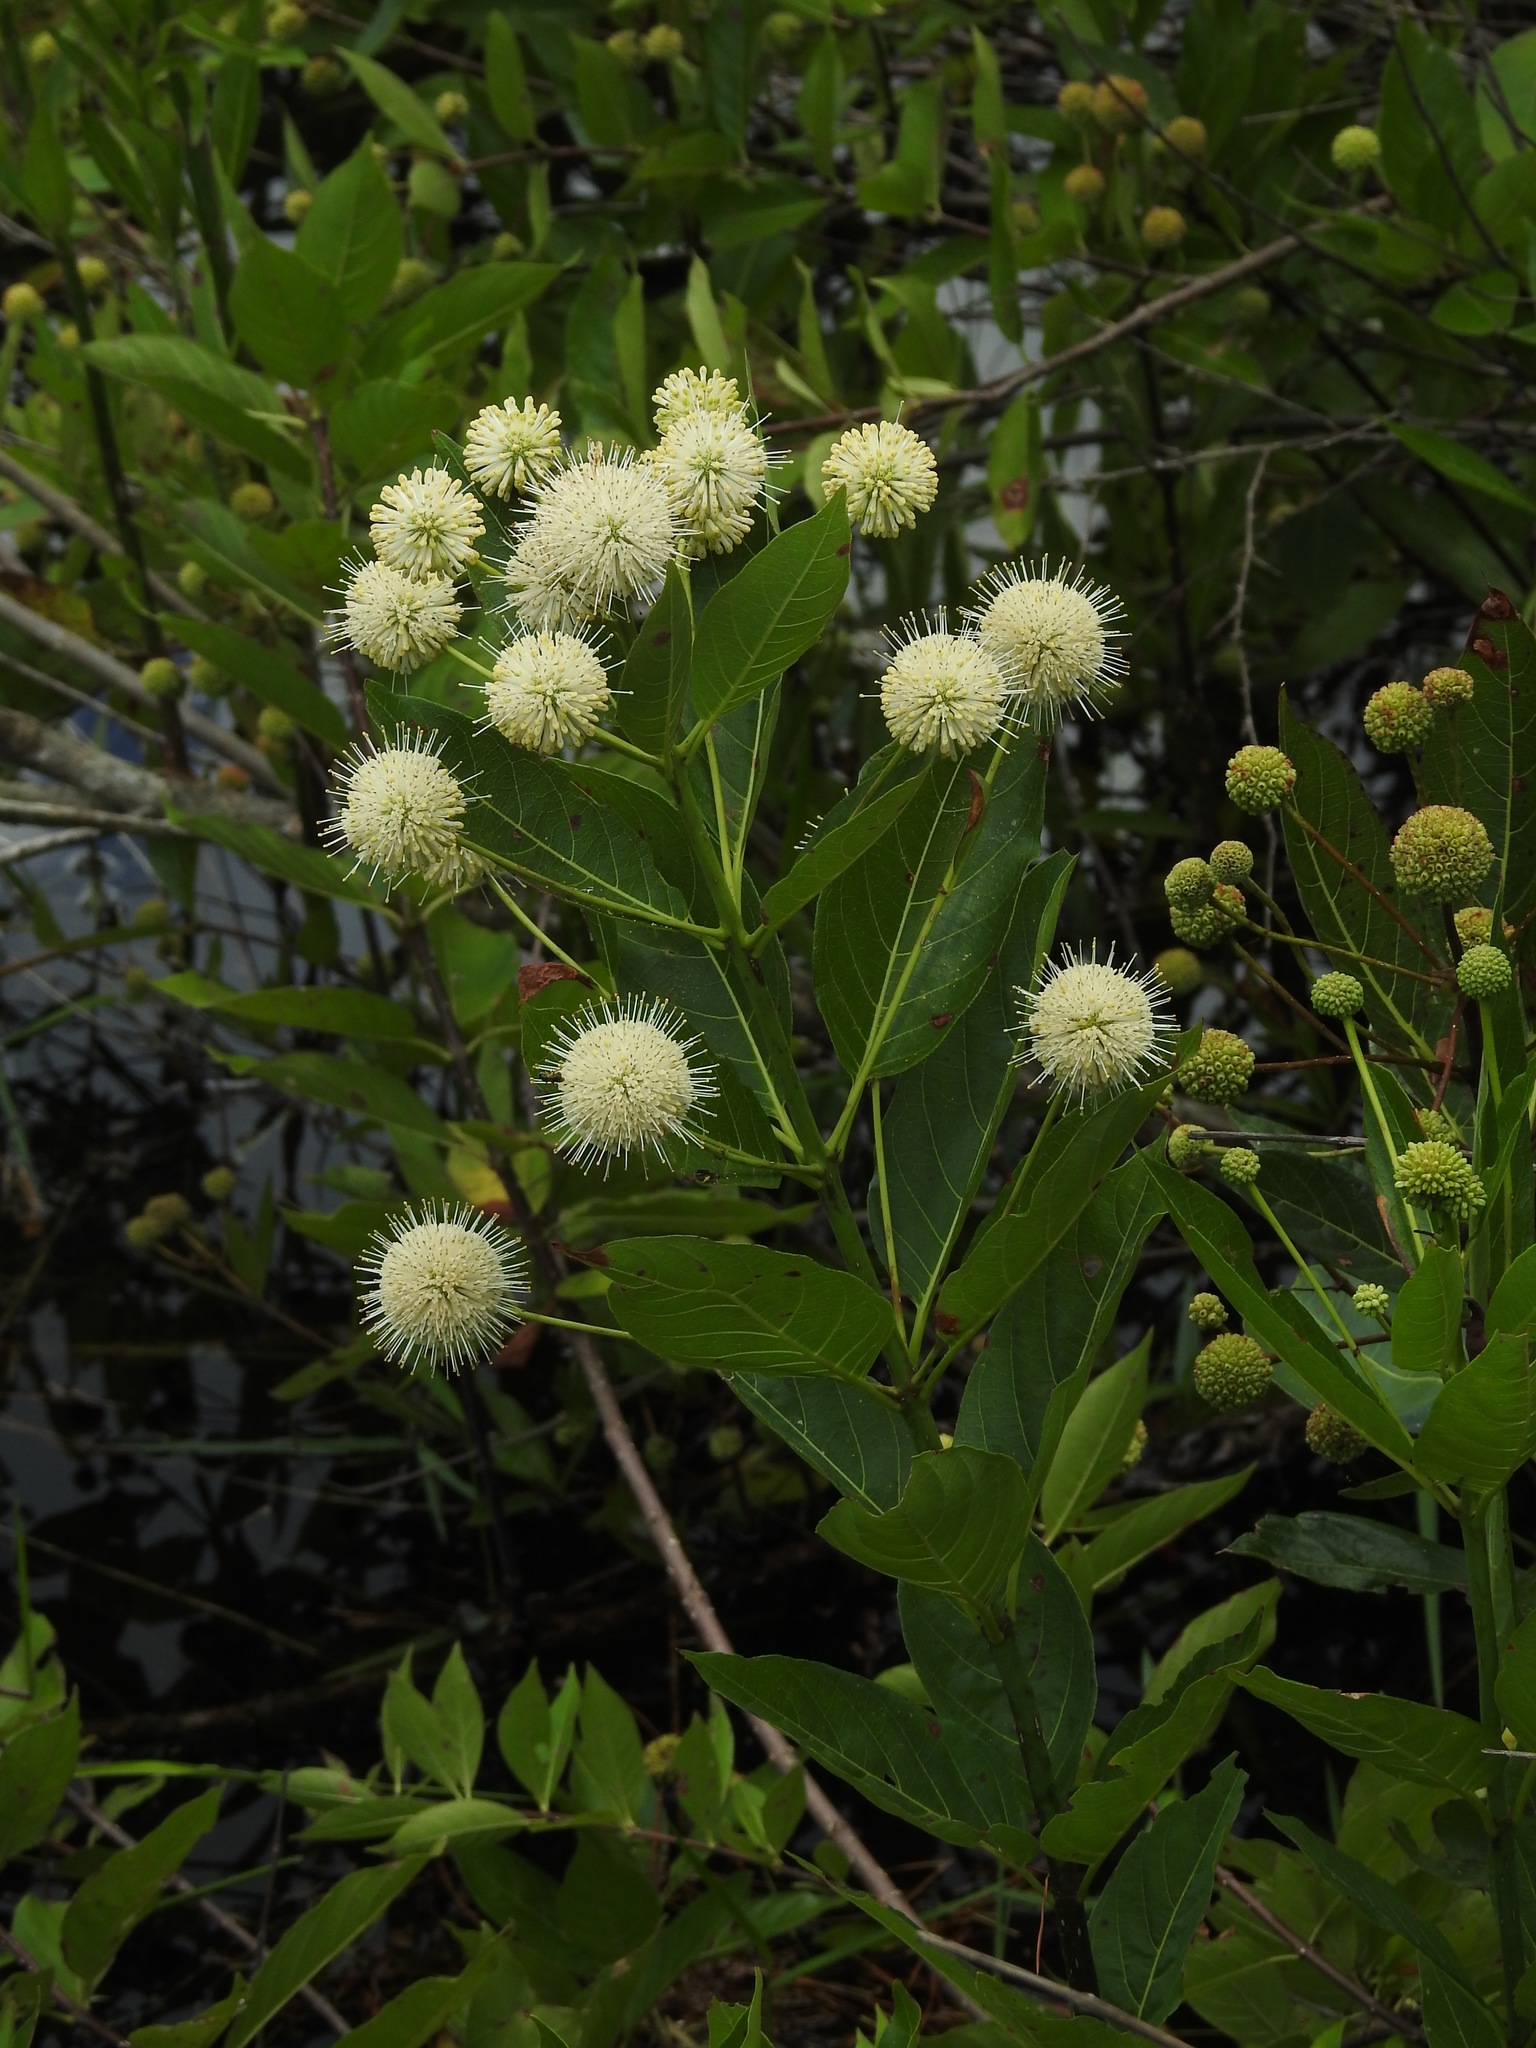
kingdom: Plantae
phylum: Tracheophyta
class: Magnoliopsida
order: Gentianales
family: Rubiaceae
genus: Cephalanthus
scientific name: Cephalanthus occidentalis
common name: Button-willow
